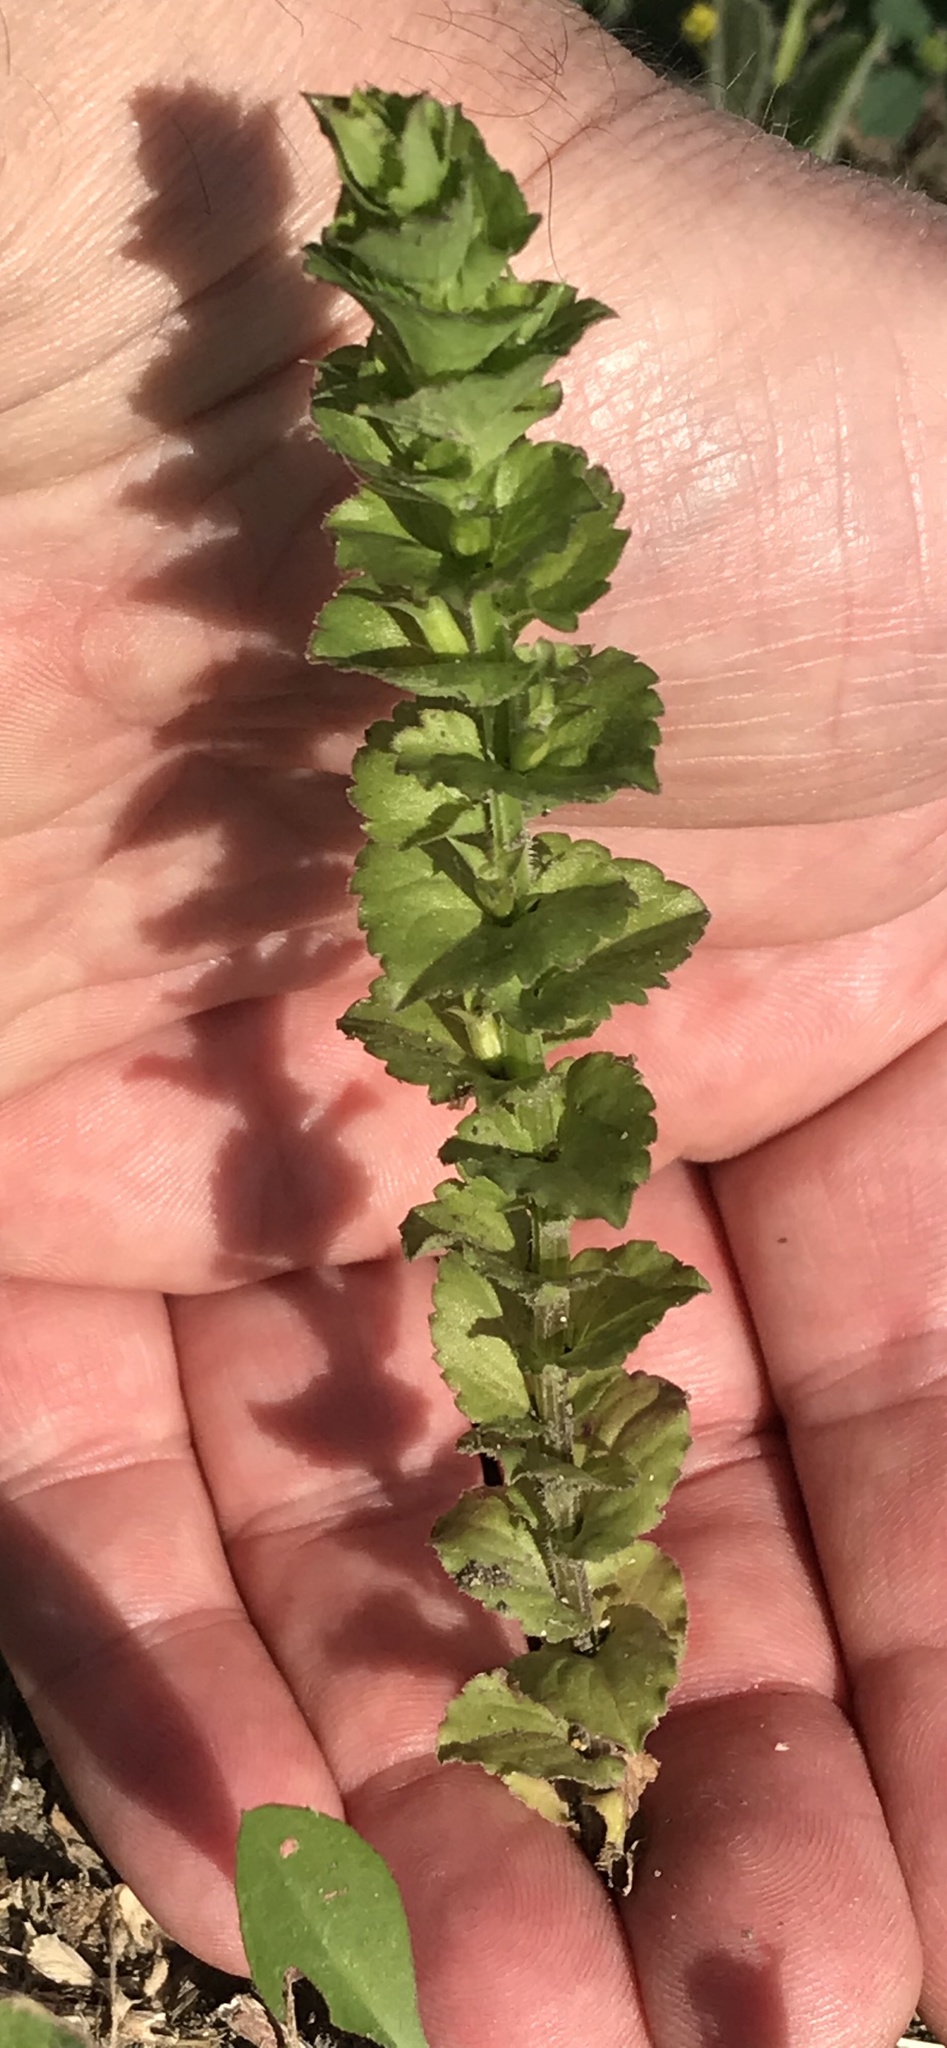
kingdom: Plantae
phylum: Tracheophyta
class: Magnoliopsida
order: Asterales
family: Campanulaceae
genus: Triodanis
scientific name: Triodanis perfoliata
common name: Clasping venus' looking-glass
